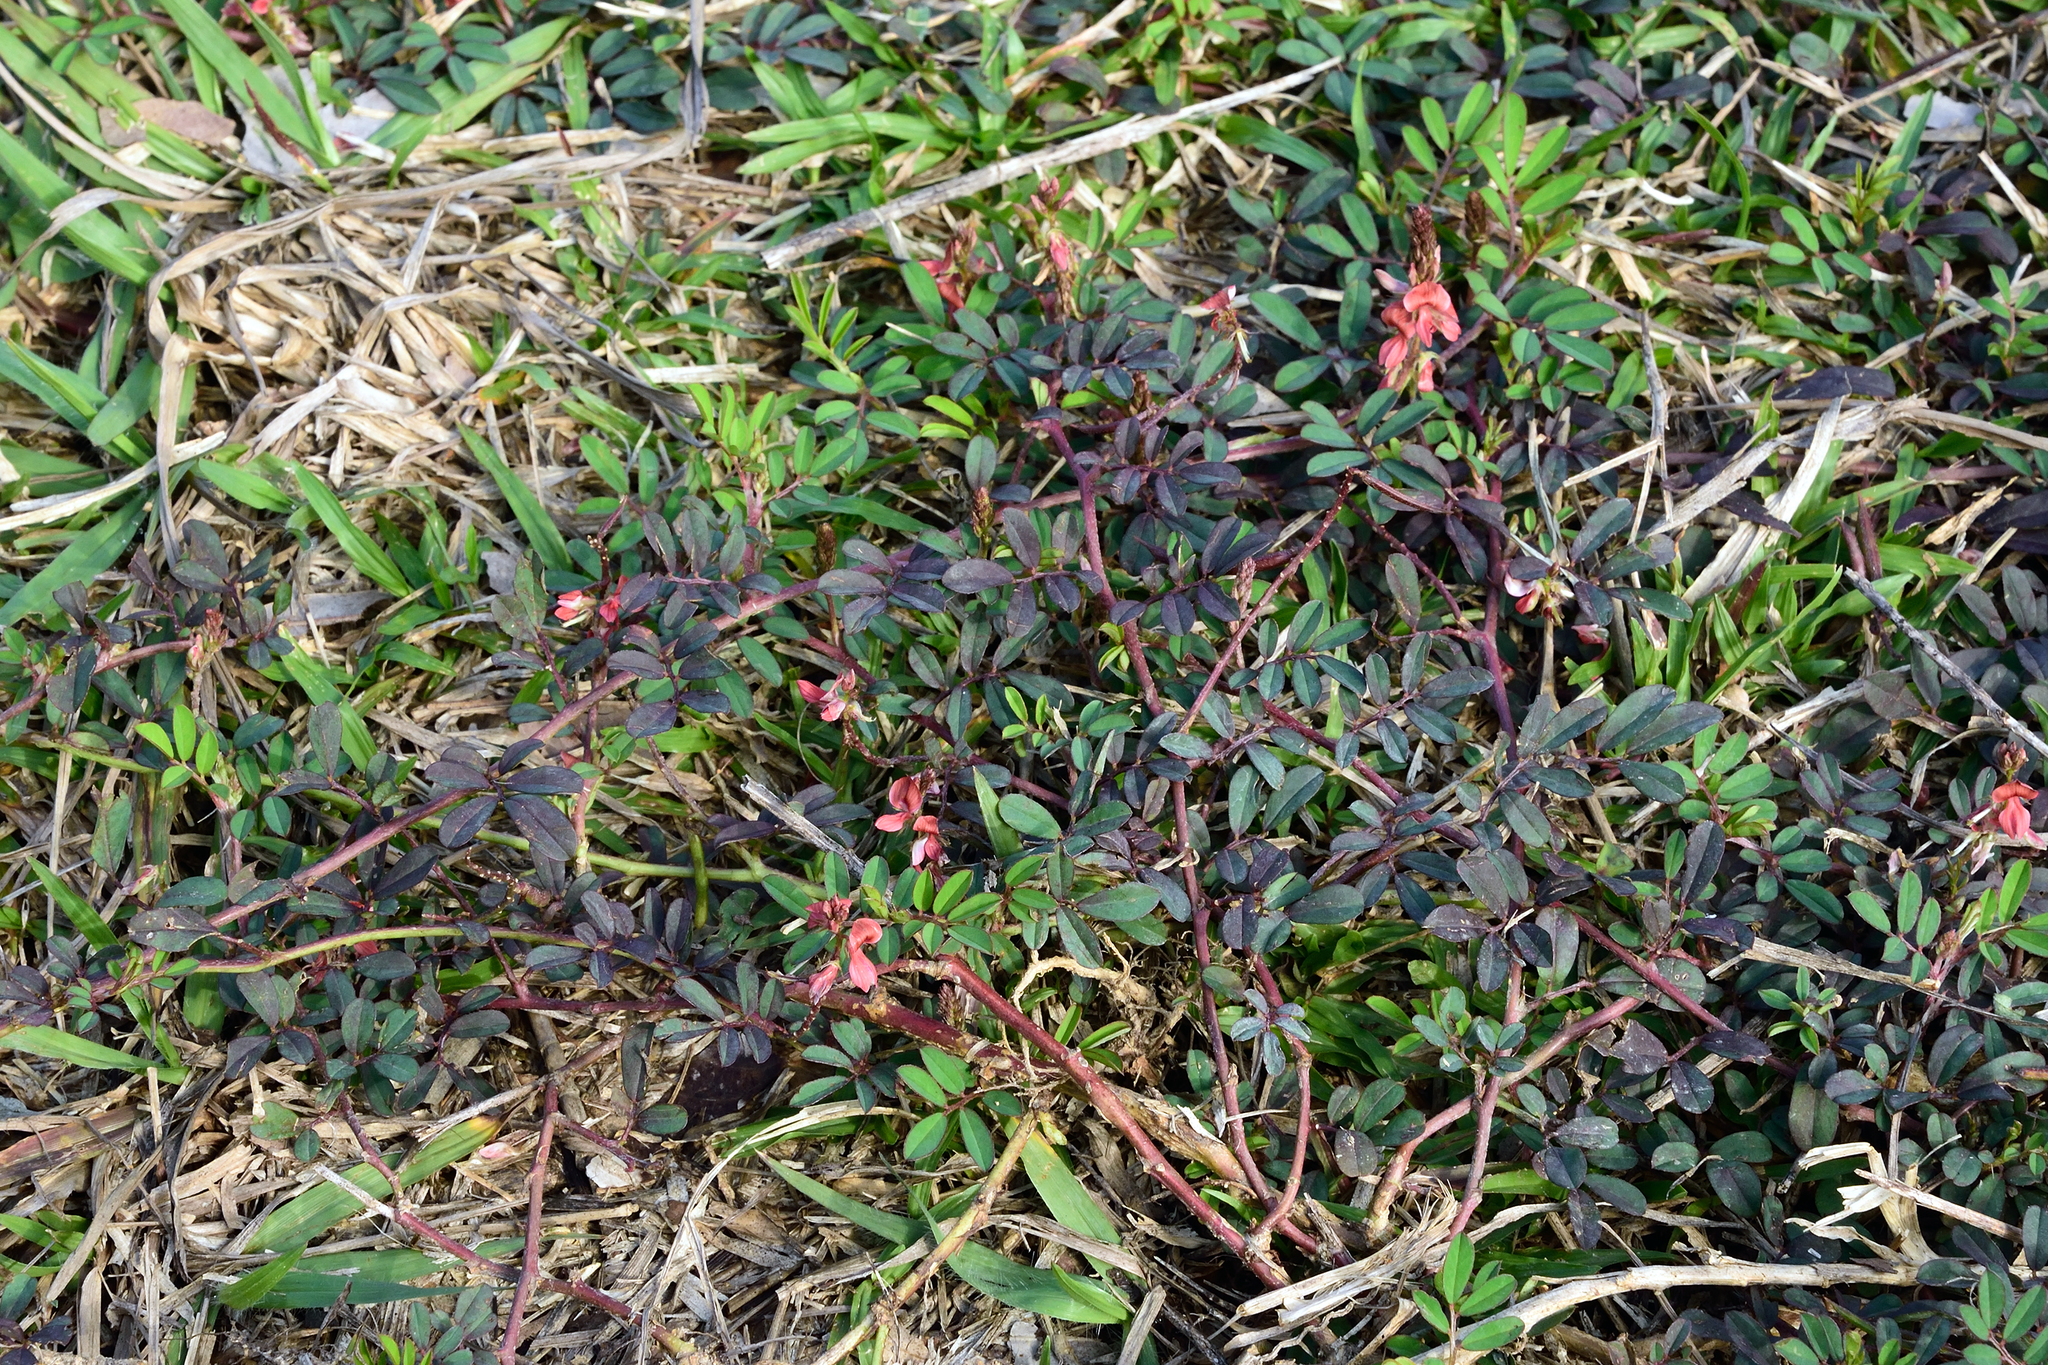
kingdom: Plantae
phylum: Tracheophyta
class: Magnoliopsida
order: Fabales
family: Fabaceae
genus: Indigofera
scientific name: Indigofera hendecaphylla
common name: Trailing indigo
